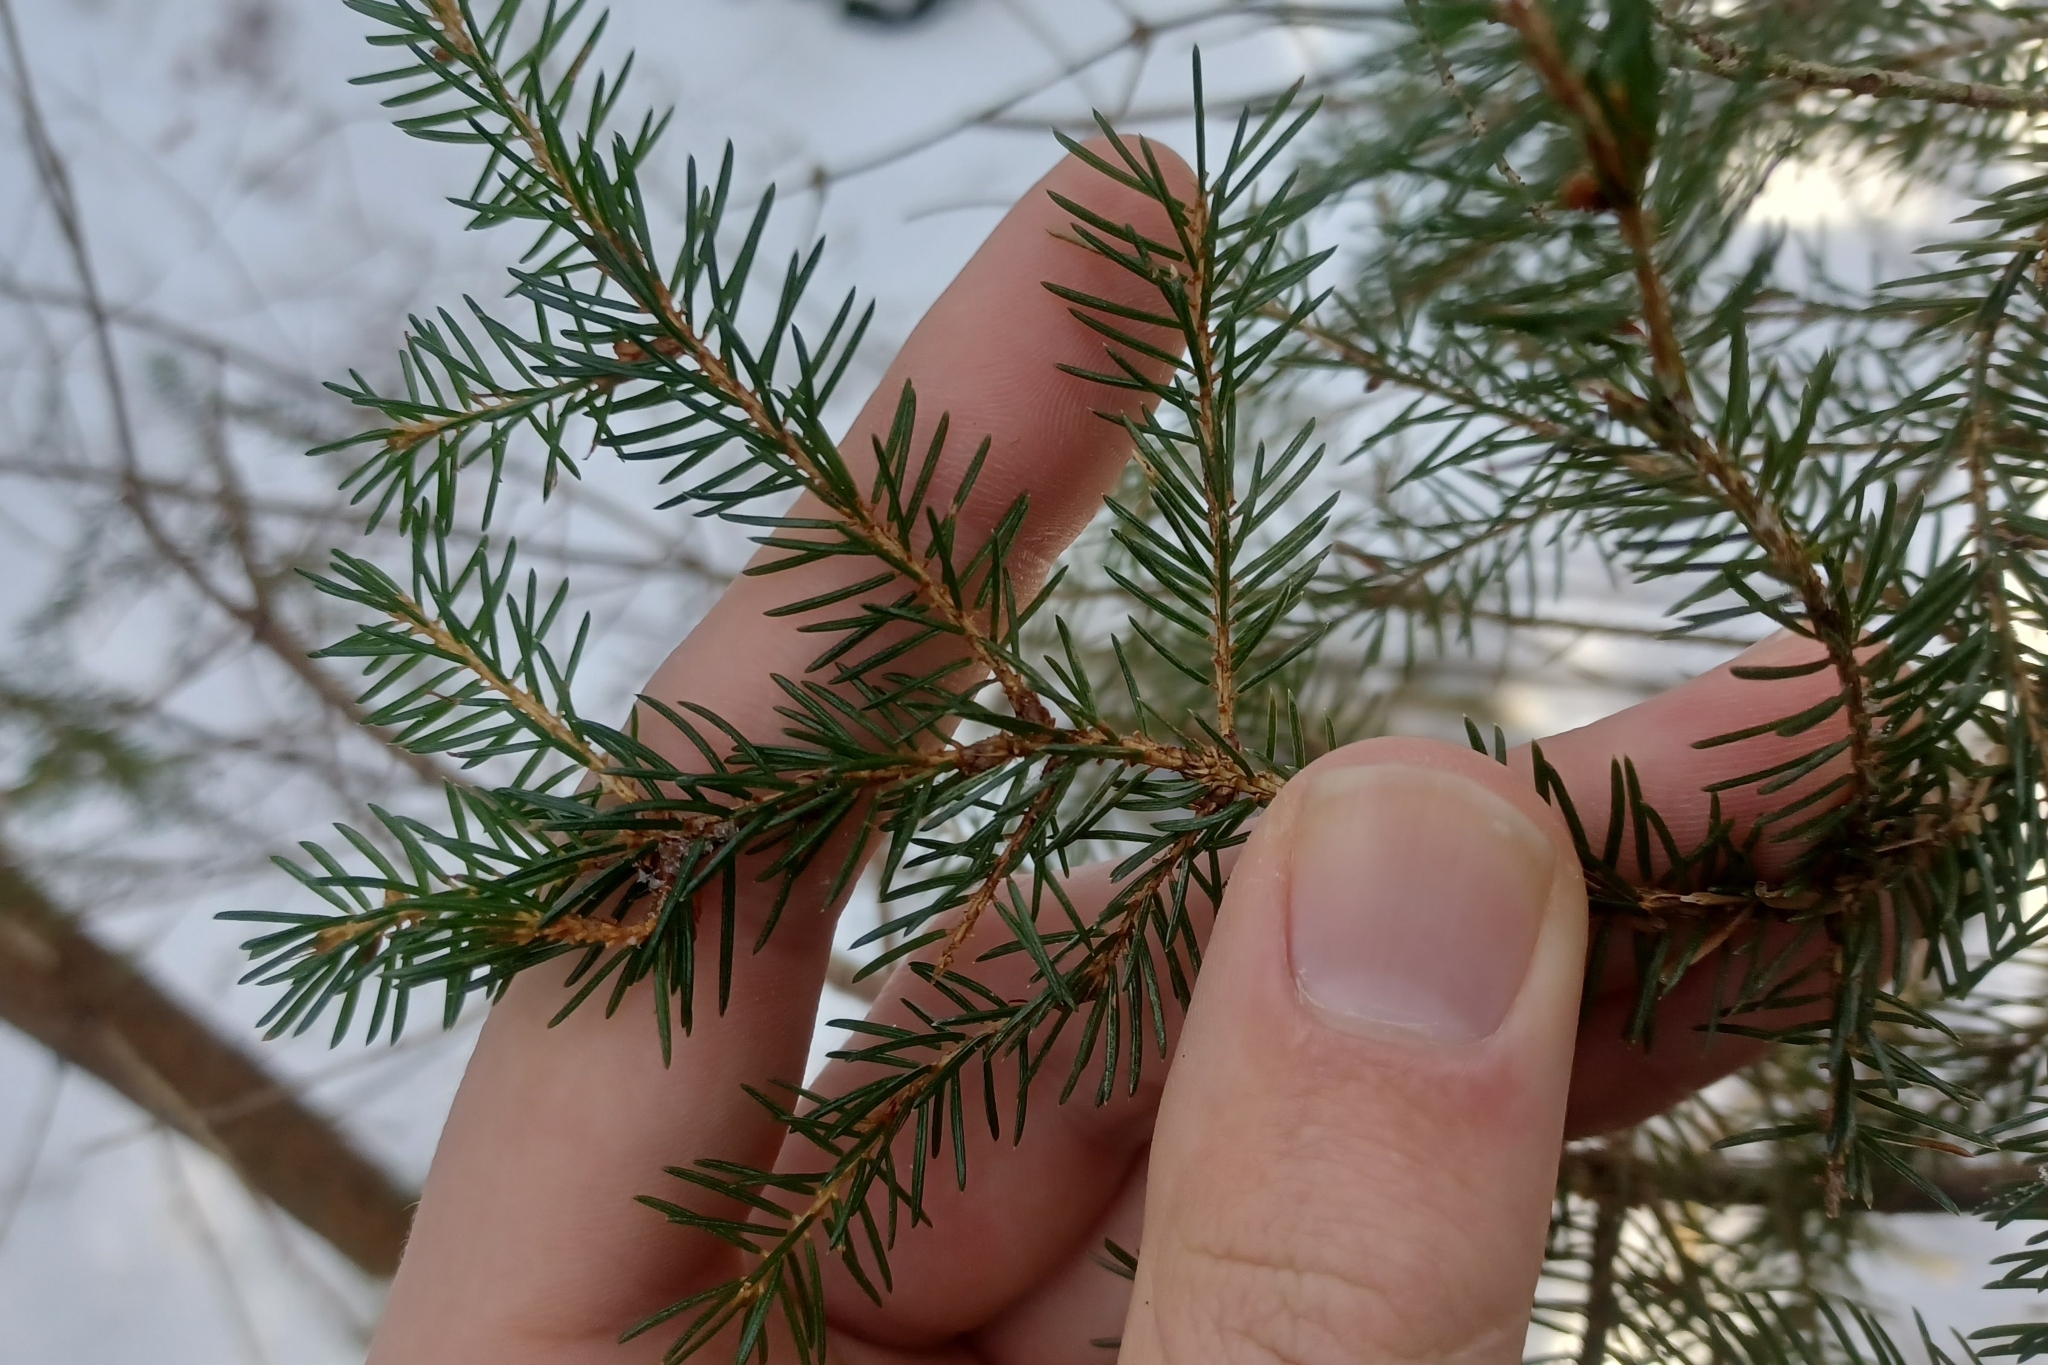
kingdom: Plantae
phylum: Tracheophyta
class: Pinopsida
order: Pinales
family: Pinaceae
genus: Picea
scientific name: Picea rubens
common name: Red spruce
